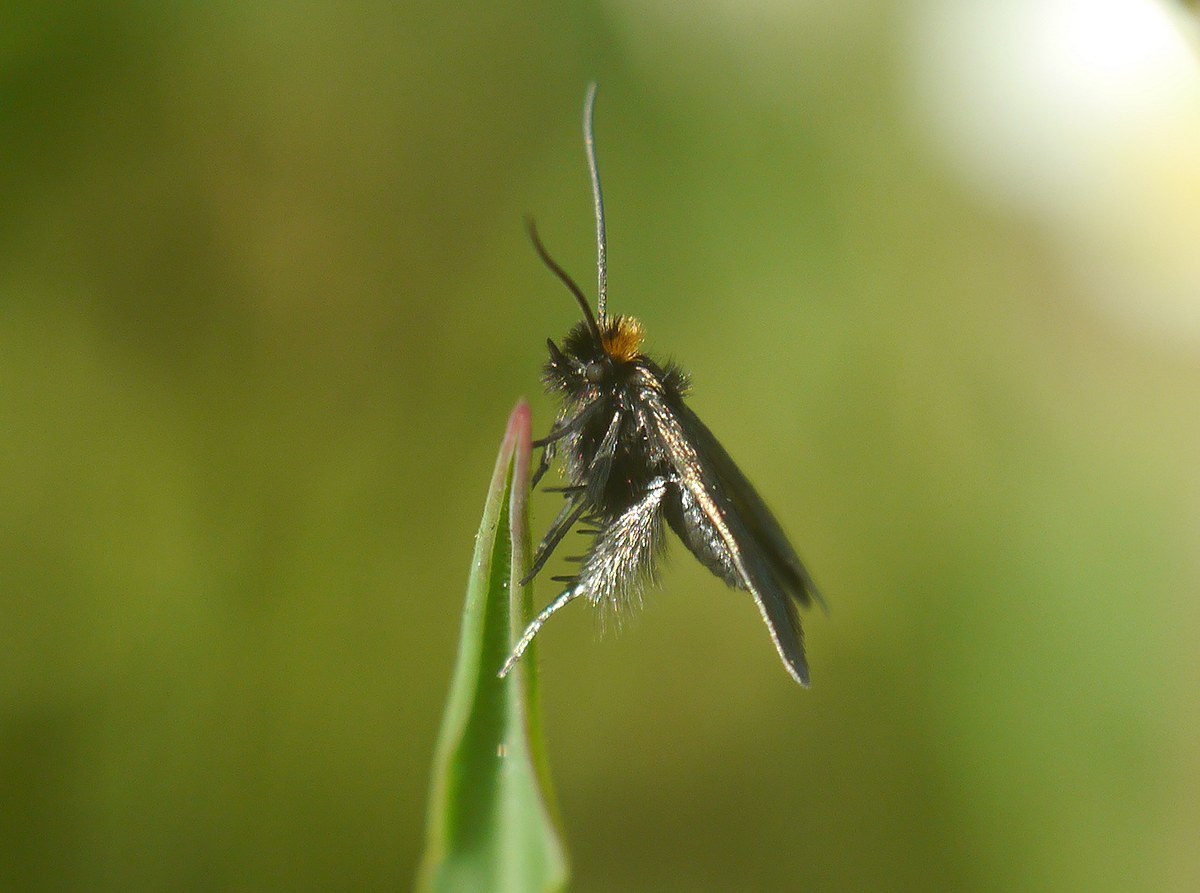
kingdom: Animalia
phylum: Arthropoda
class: Insecta
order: Lepidoptera
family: Adelidae
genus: Cauchas
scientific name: Cauchas rufifrontella
